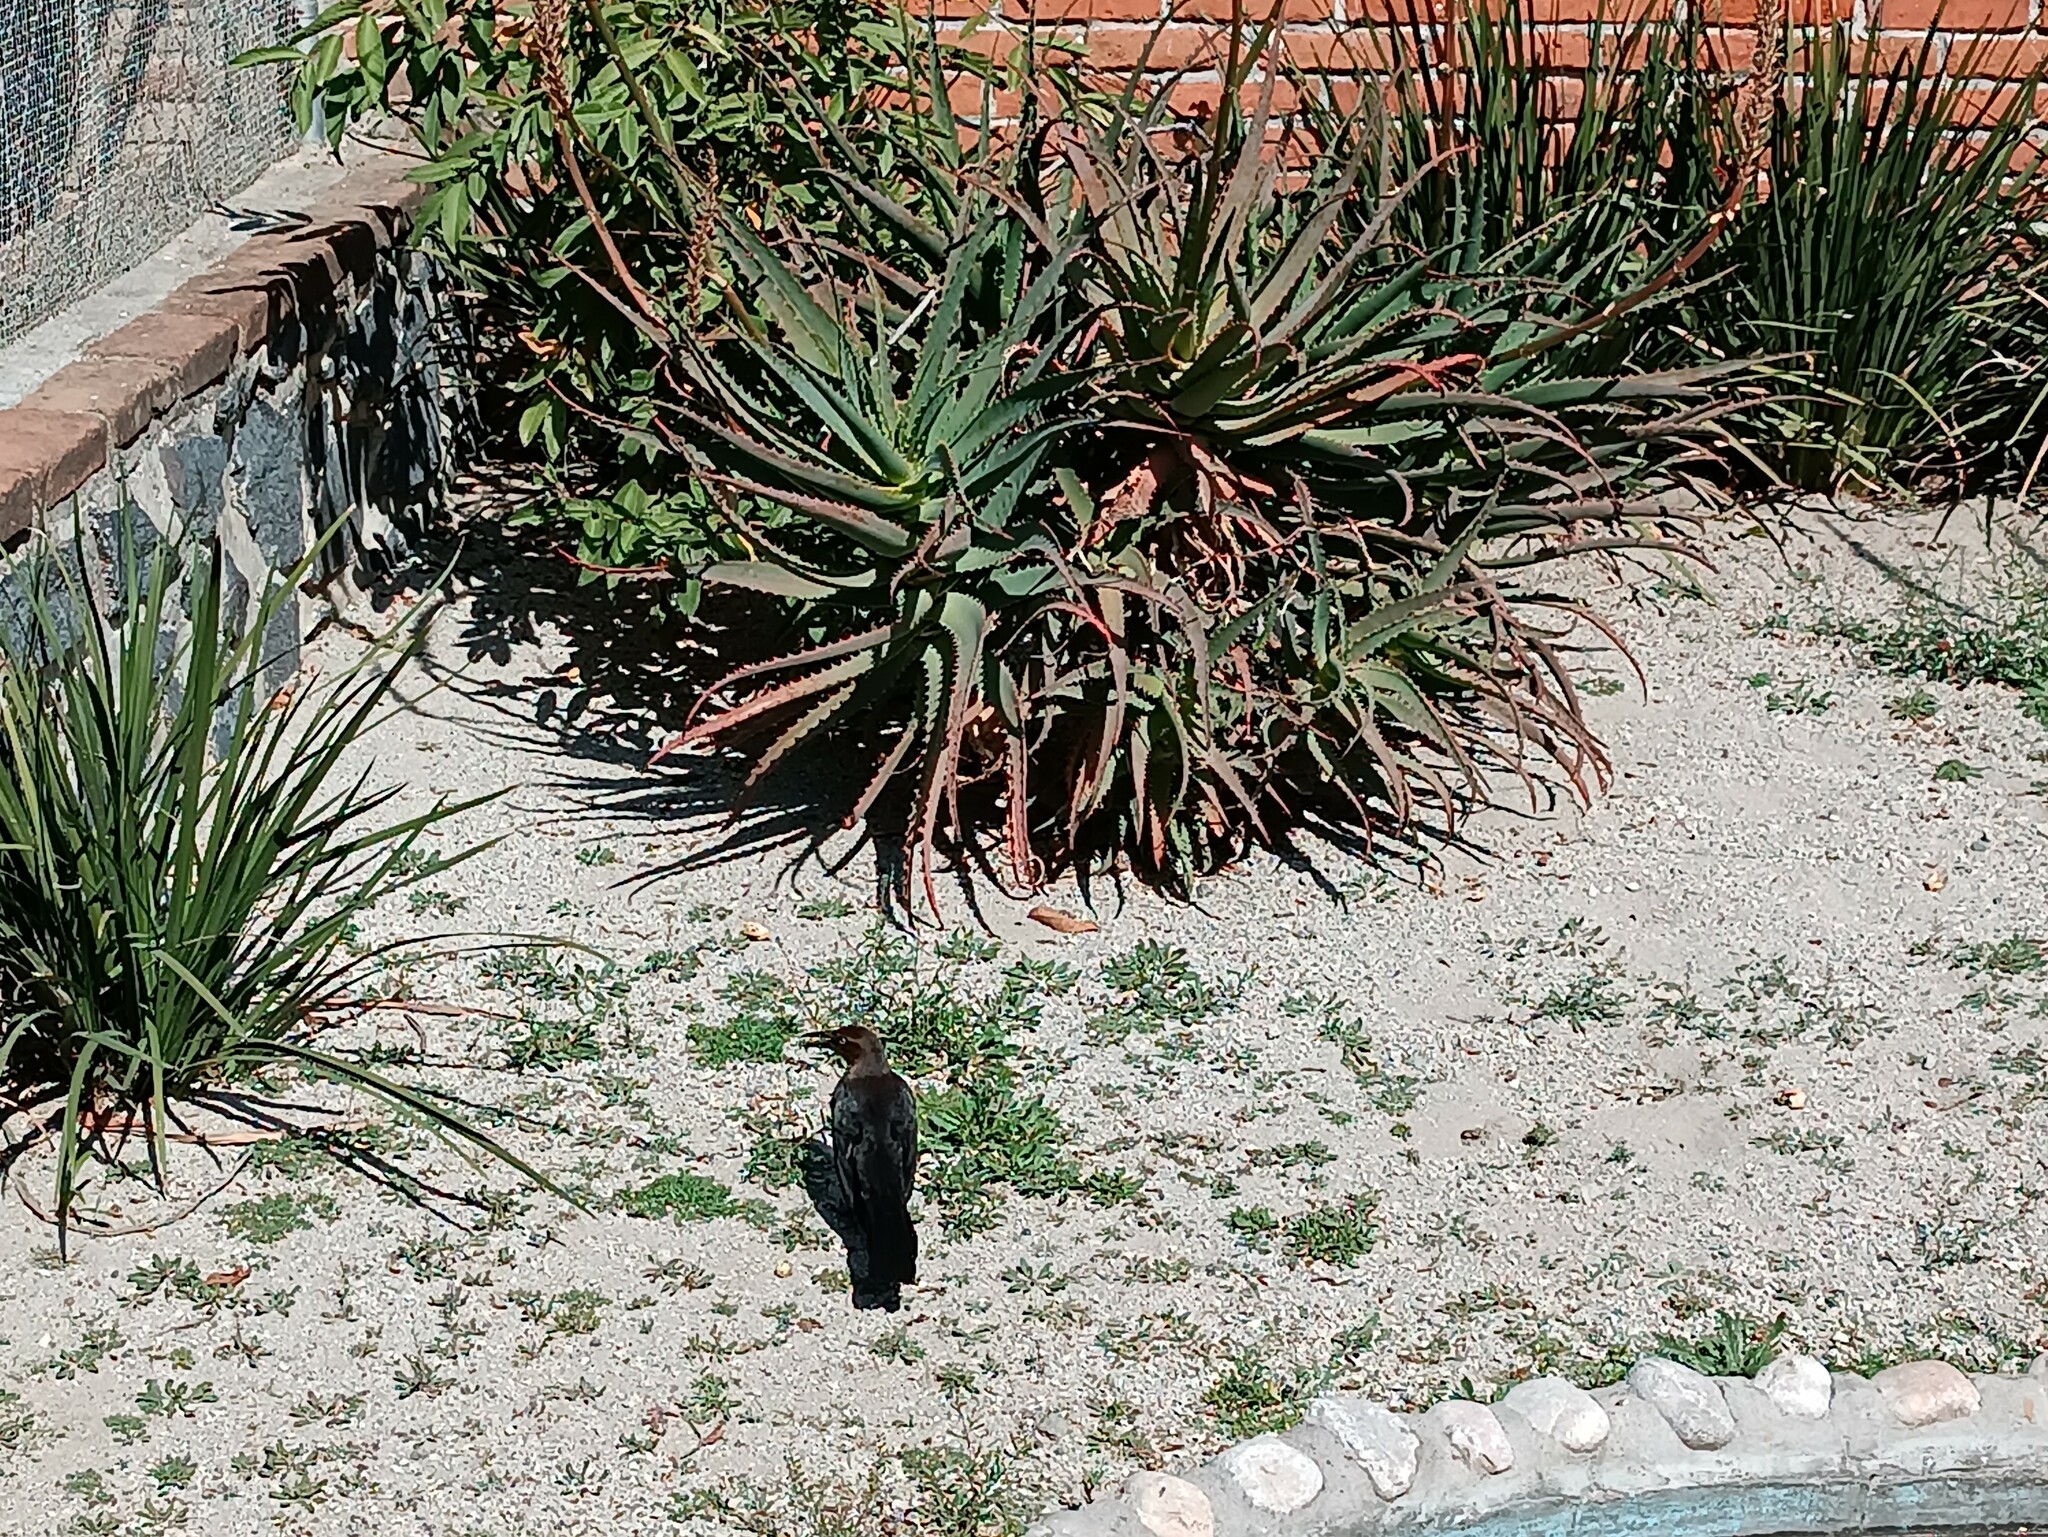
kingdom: Animalia
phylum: Chordata
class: Aves
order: Passeriformes
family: Icteridae
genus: Quiscalus
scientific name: Quiscalus mexicanus
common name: Great-tailed grackle
